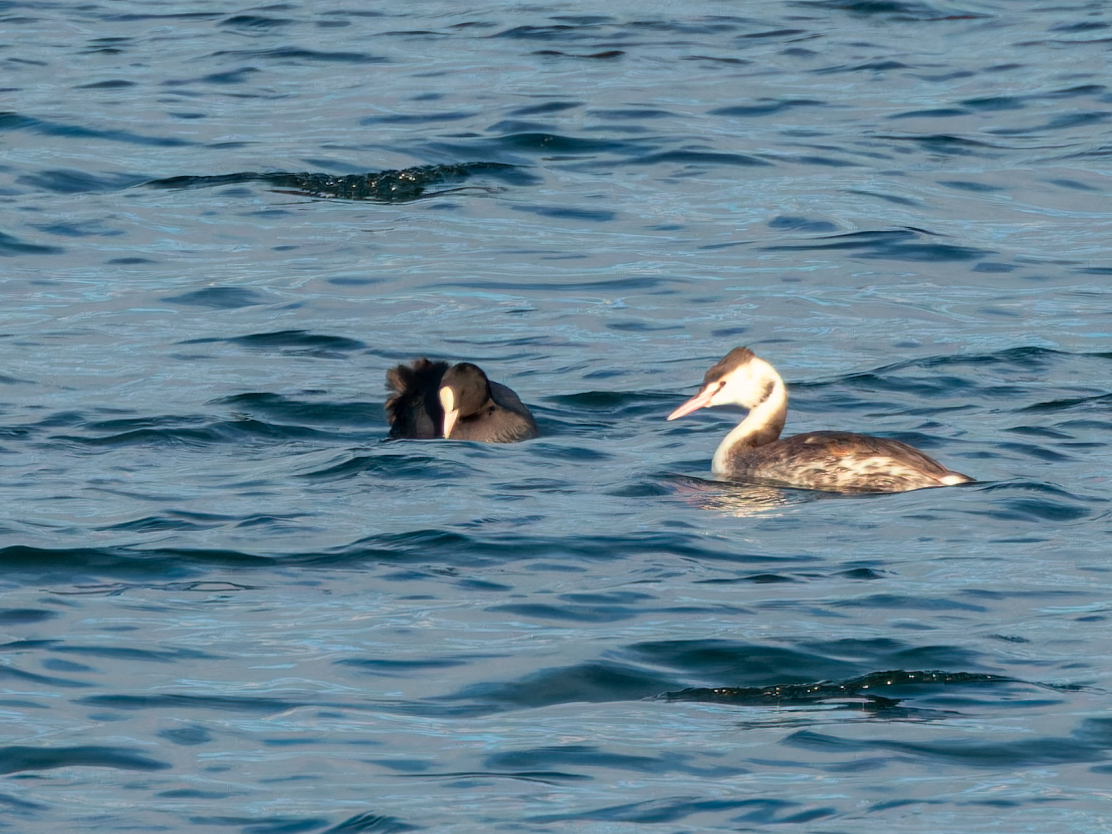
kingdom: Animalia
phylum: Chordata
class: Aves
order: Podicipediformes
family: Podicipedidae
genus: Podiceps
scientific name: Podiceps cristatus
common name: Great crested grebe
